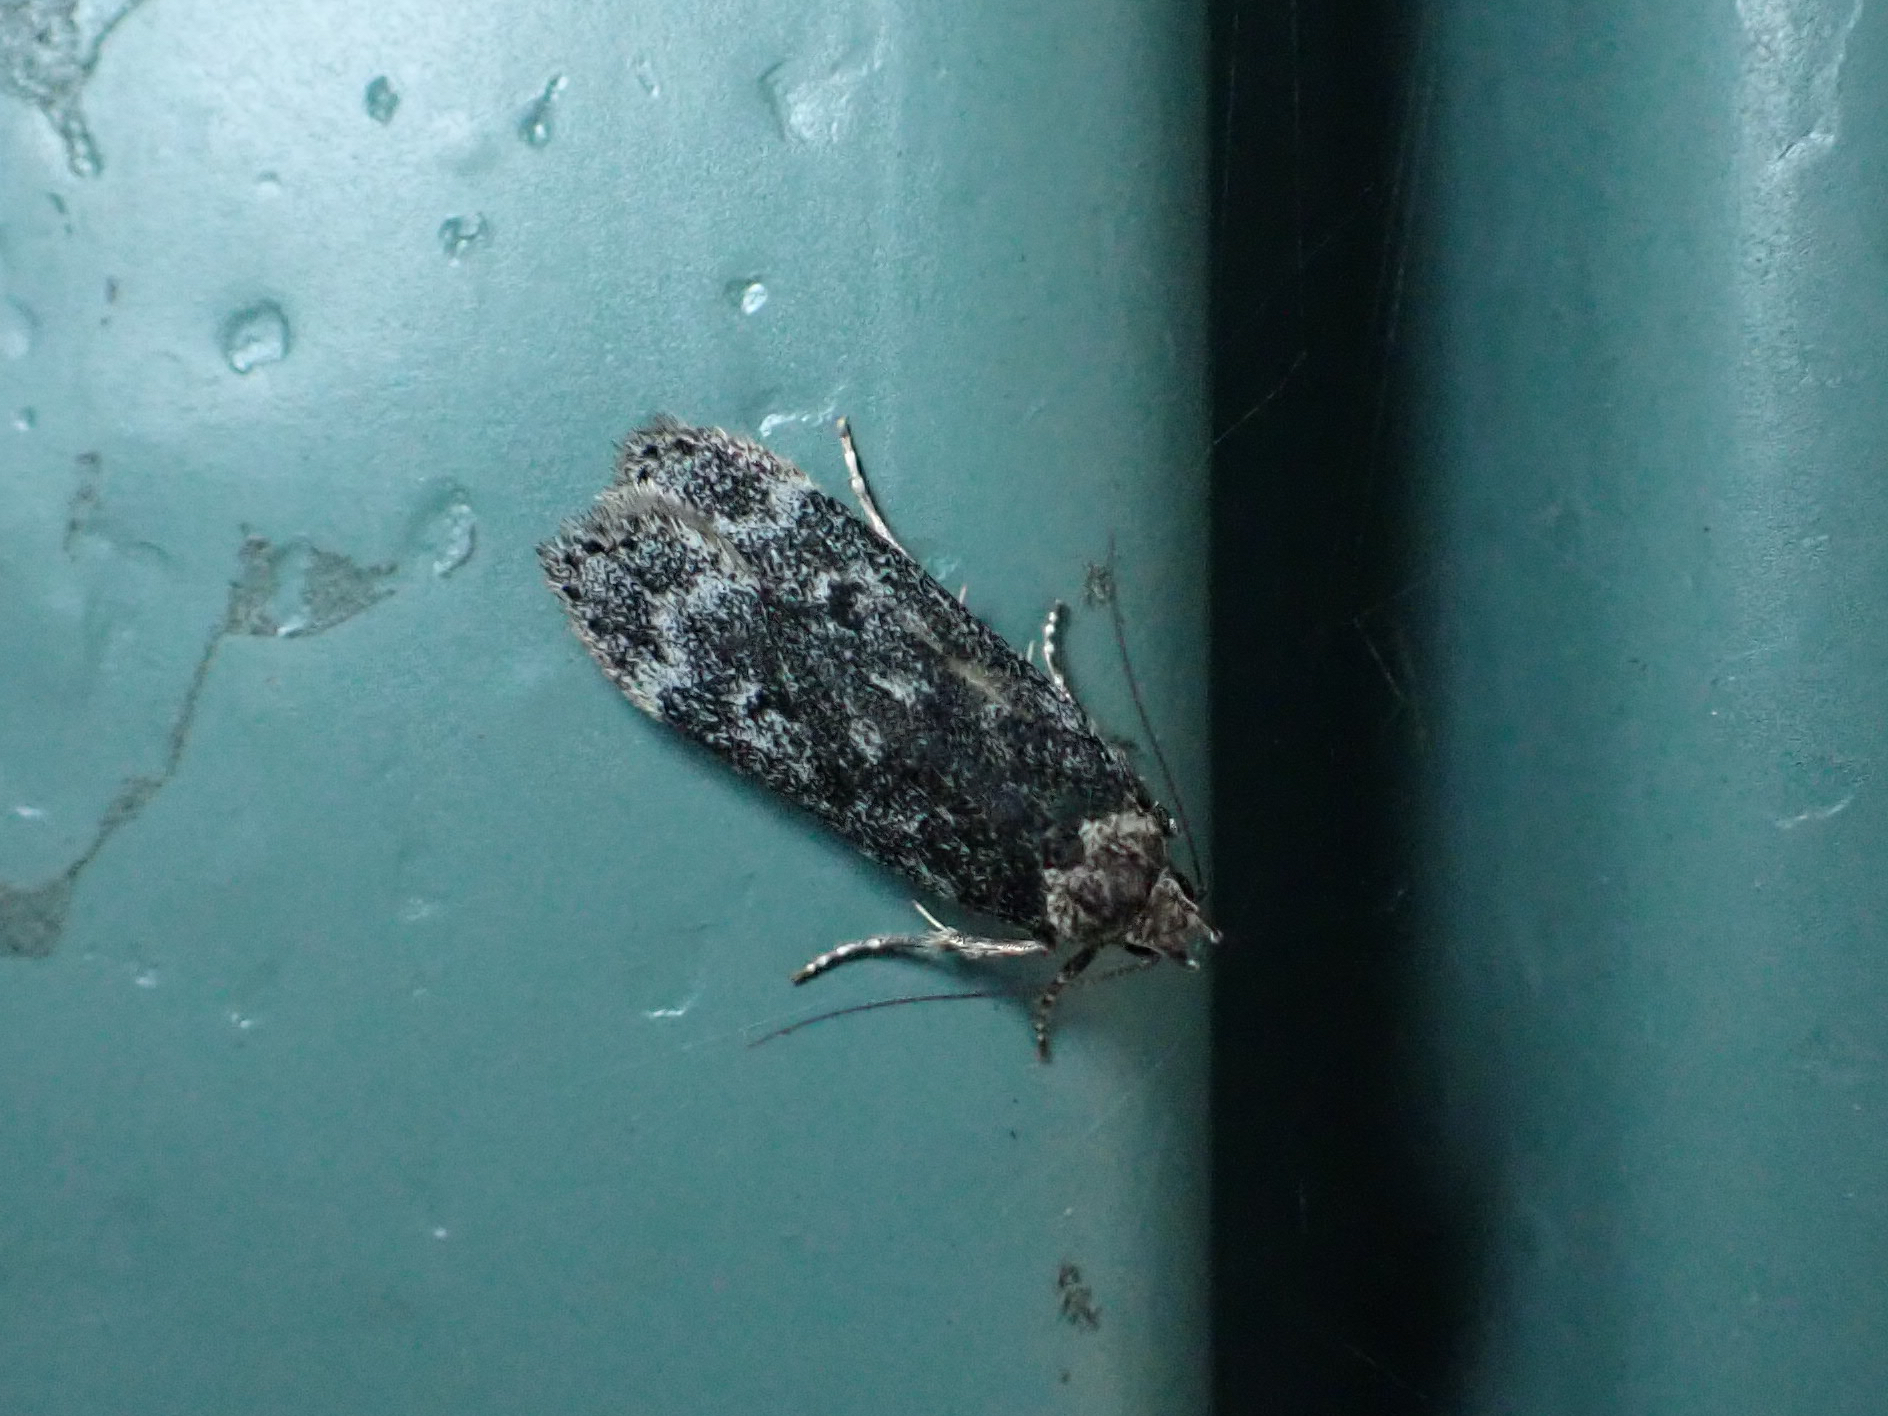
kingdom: Animalia
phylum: Arthropoda
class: Insecta
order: Lepidoptera
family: Gelechiidae
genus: Anacampsis
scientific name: Anacampsis niveopulvella
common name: Pale-headed aspen leafroller moth
